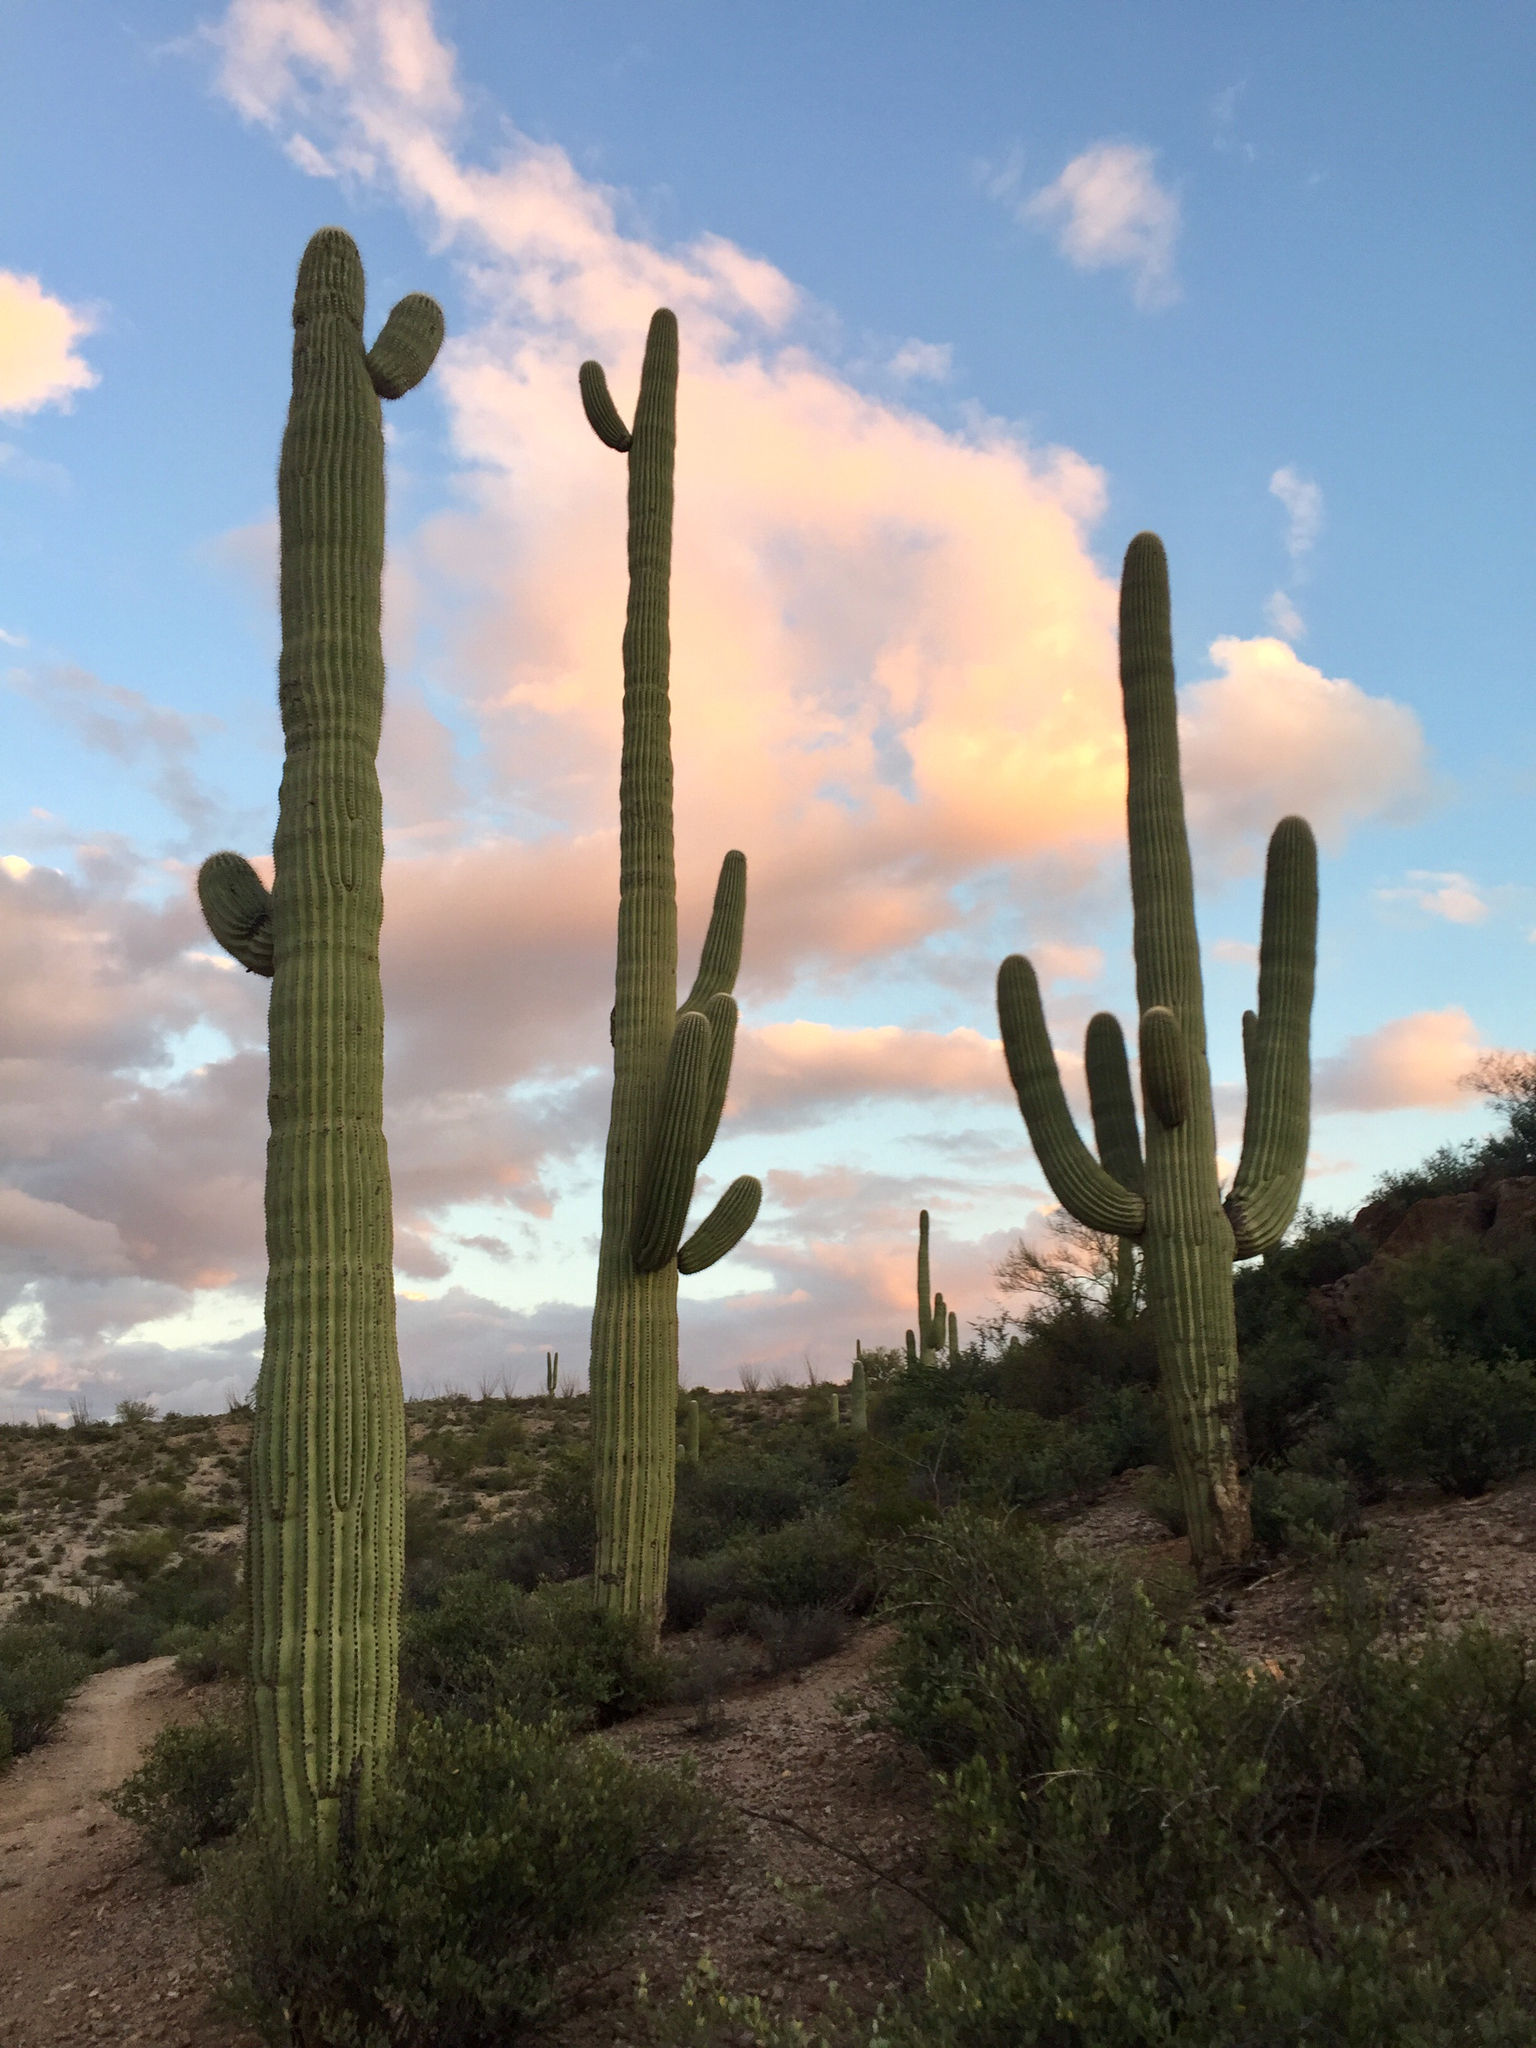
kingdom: Plantae
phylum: Tracheophyta
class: Magnoliopsida
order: Caryophyllales
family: Cactaceae
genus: Carnegiea
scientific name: Carnegiea gigantea
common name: Saguaro
